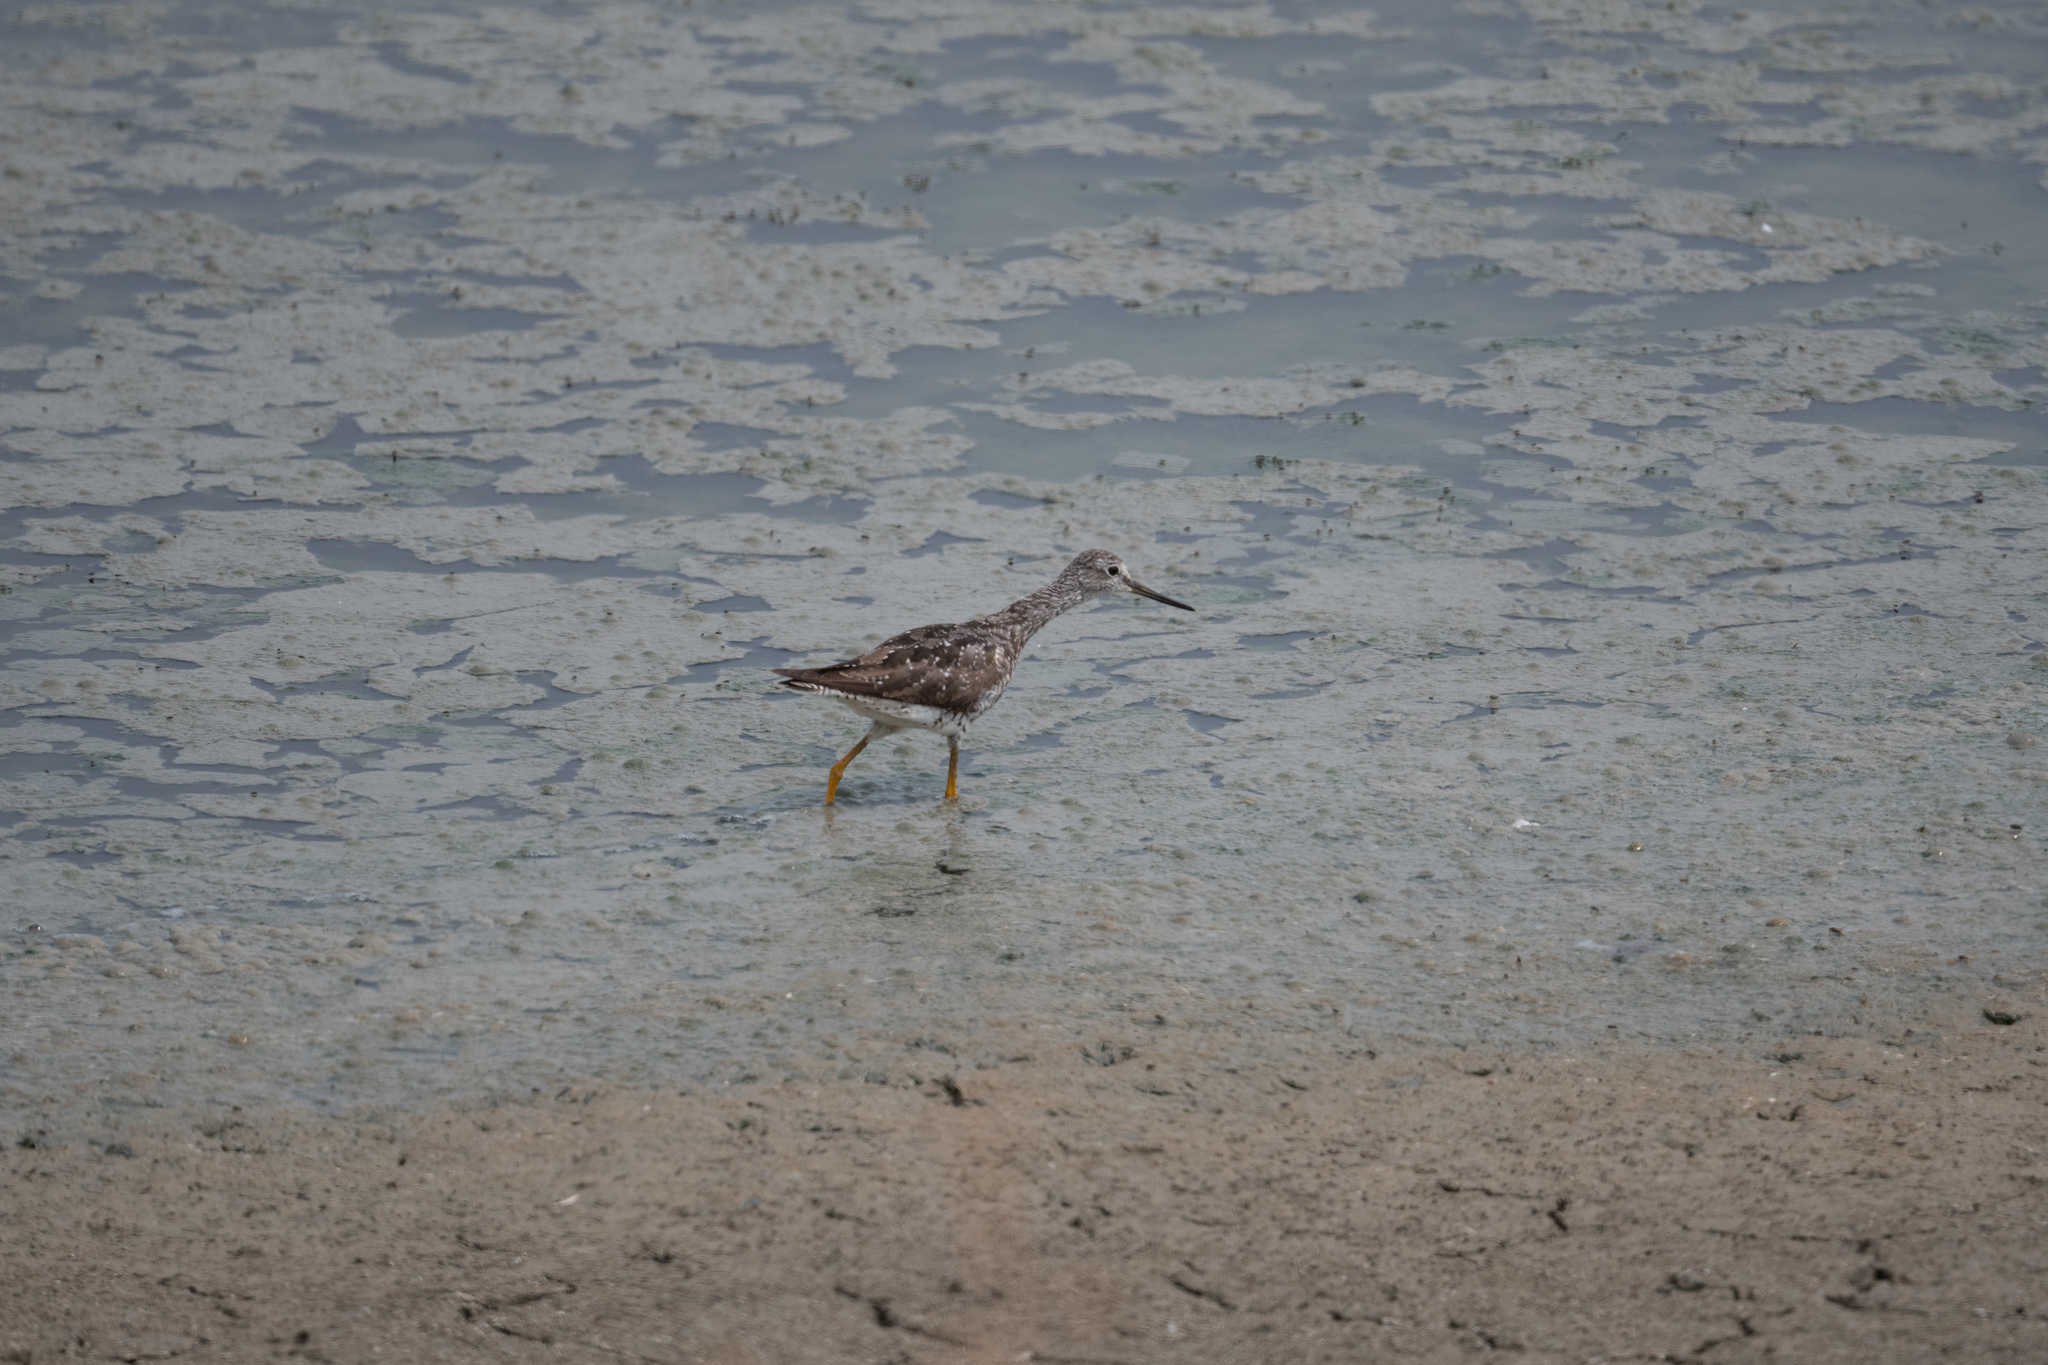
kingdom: Animalia
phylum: Chordata
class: Aves
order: Charadriiformes
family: Scolopacidae
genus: Tringa
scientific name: Tringa melanoleuca
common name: Greater yellowlegs
